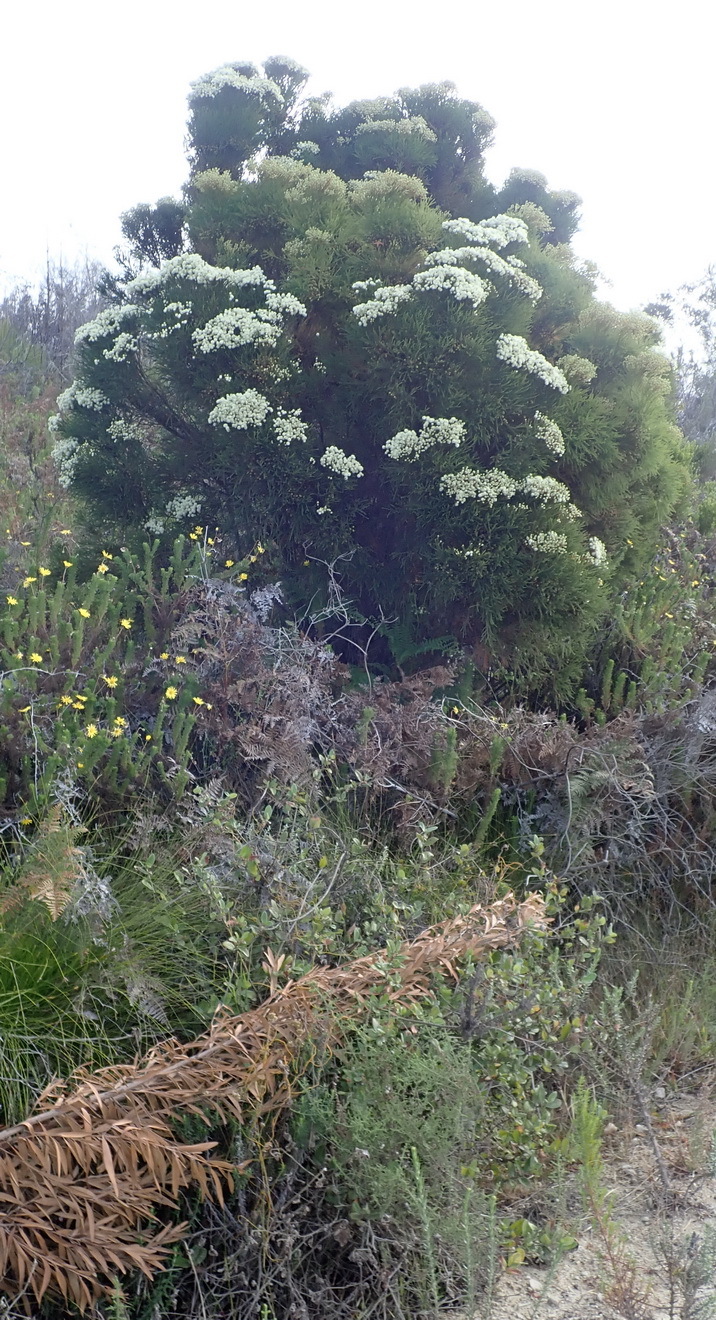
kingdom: Plantae
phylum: Tracheophyta
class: Magnoliopsida
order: Bruniales
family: Bruniaceae
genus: Berzelia
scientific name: Berzelia intermedia
